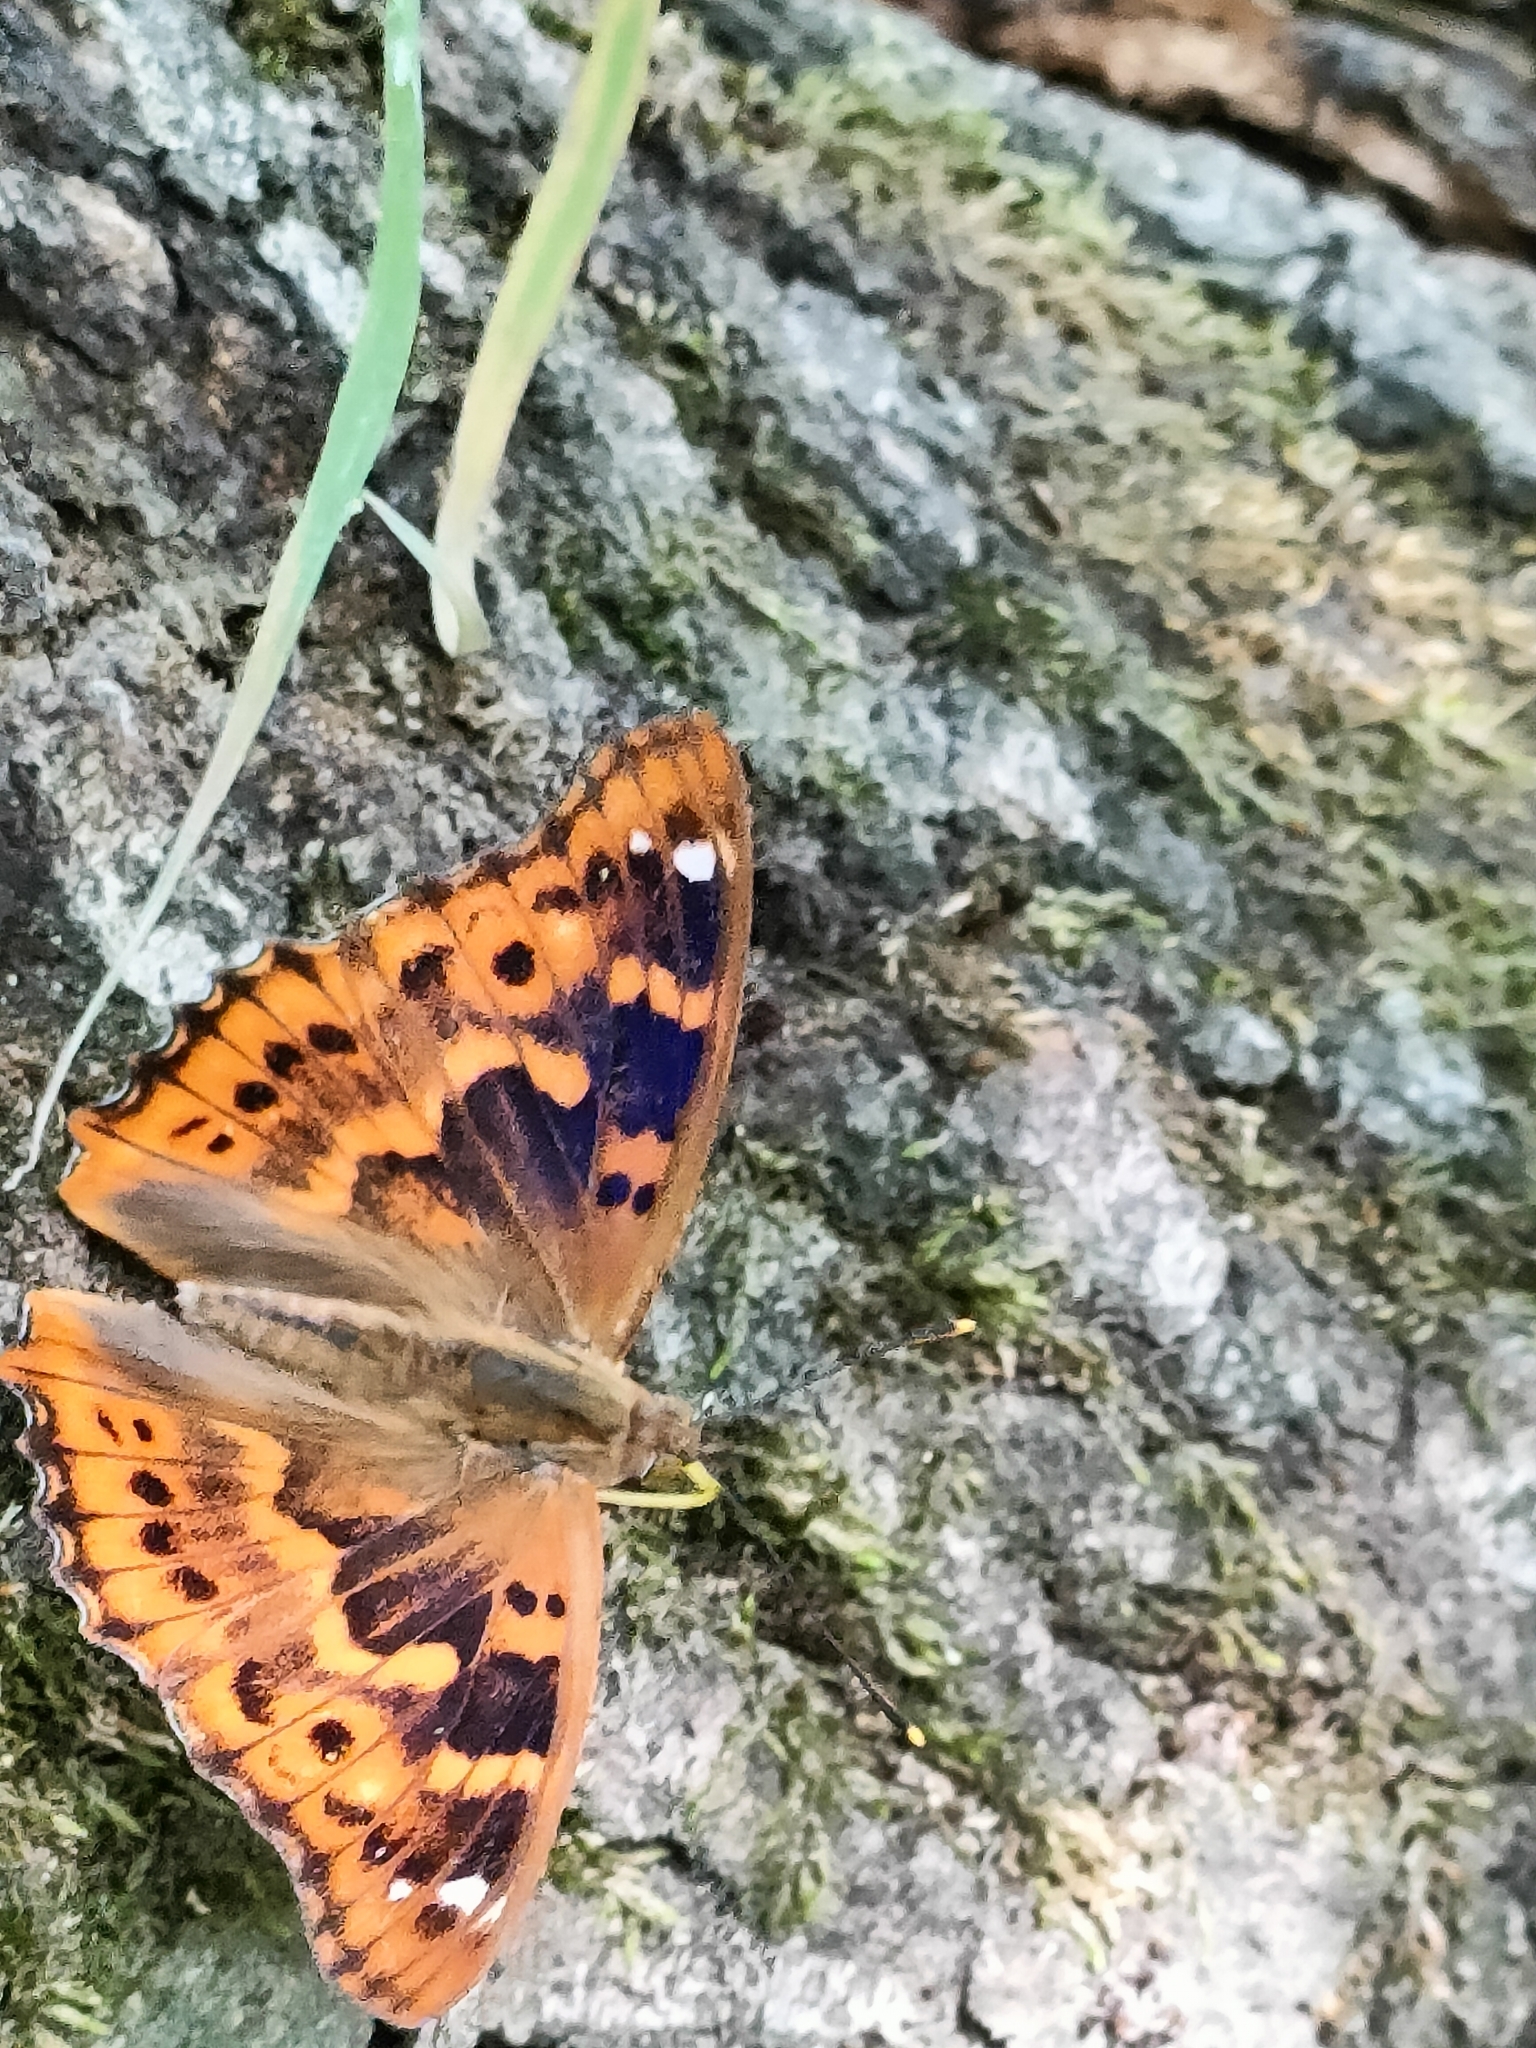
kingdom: Animalia
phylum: Arthropoda
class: Insecta
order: Lepidoptera
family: Nymphalidae
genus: Apatura
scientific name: Apatura ilia
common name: Lesser purple emperor
